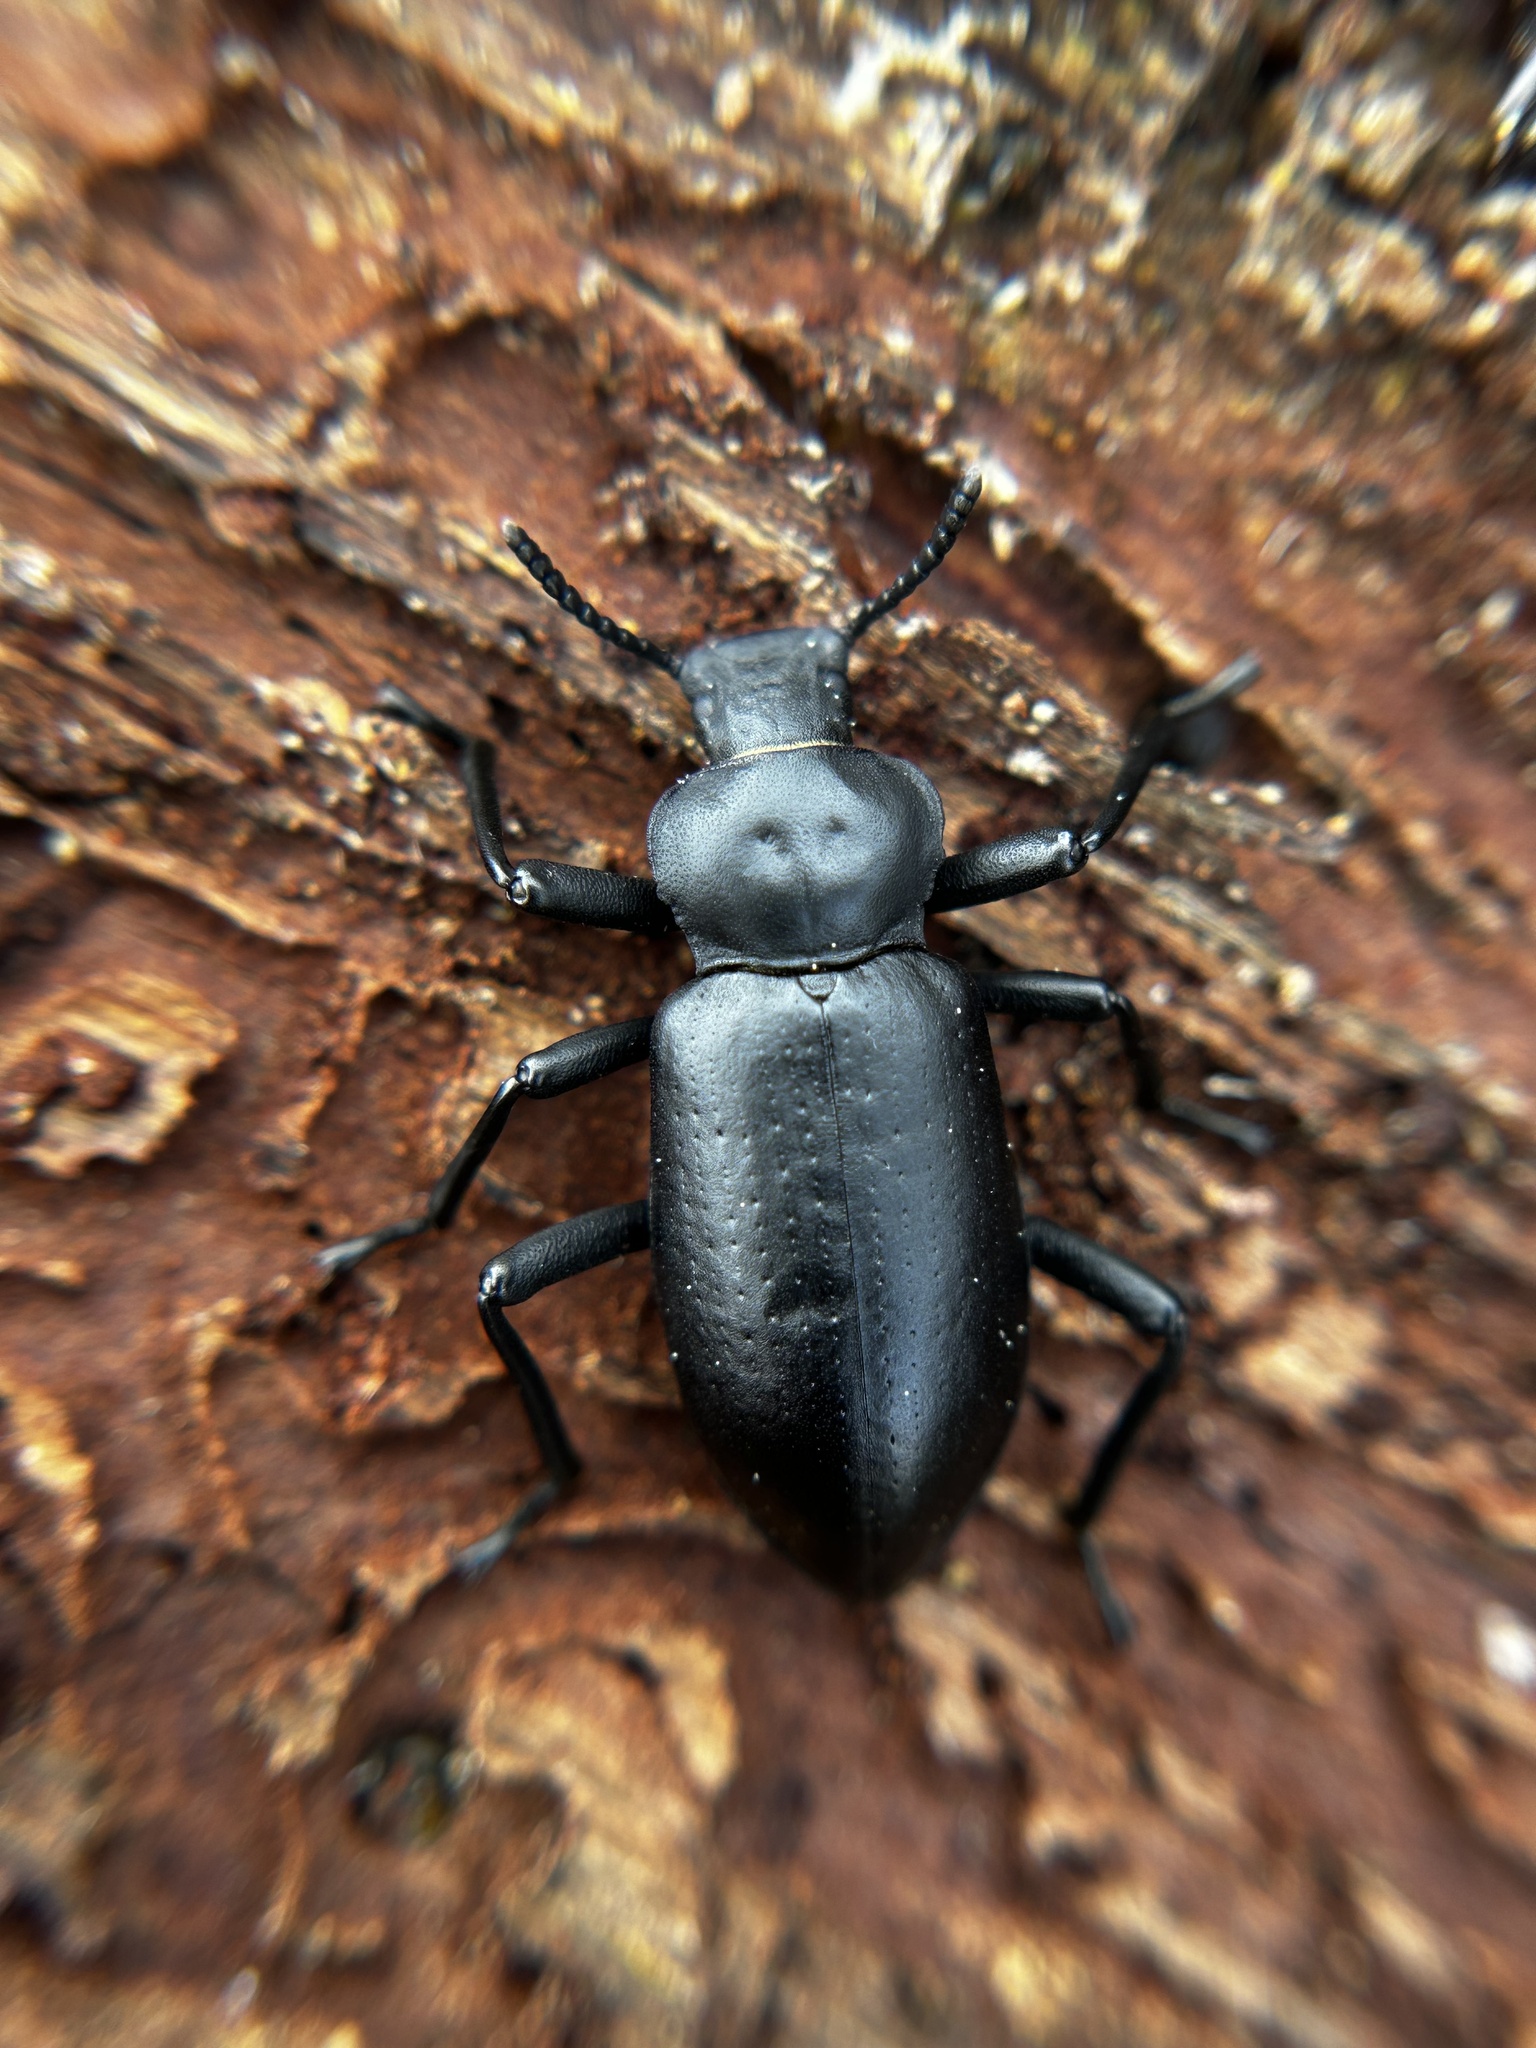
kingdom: Animalia
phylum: Arthropoda
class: Insecta
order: Coleoptera
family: Tenebrionidae
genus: Iphthiminus
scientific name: Iphthiminus lewisii
